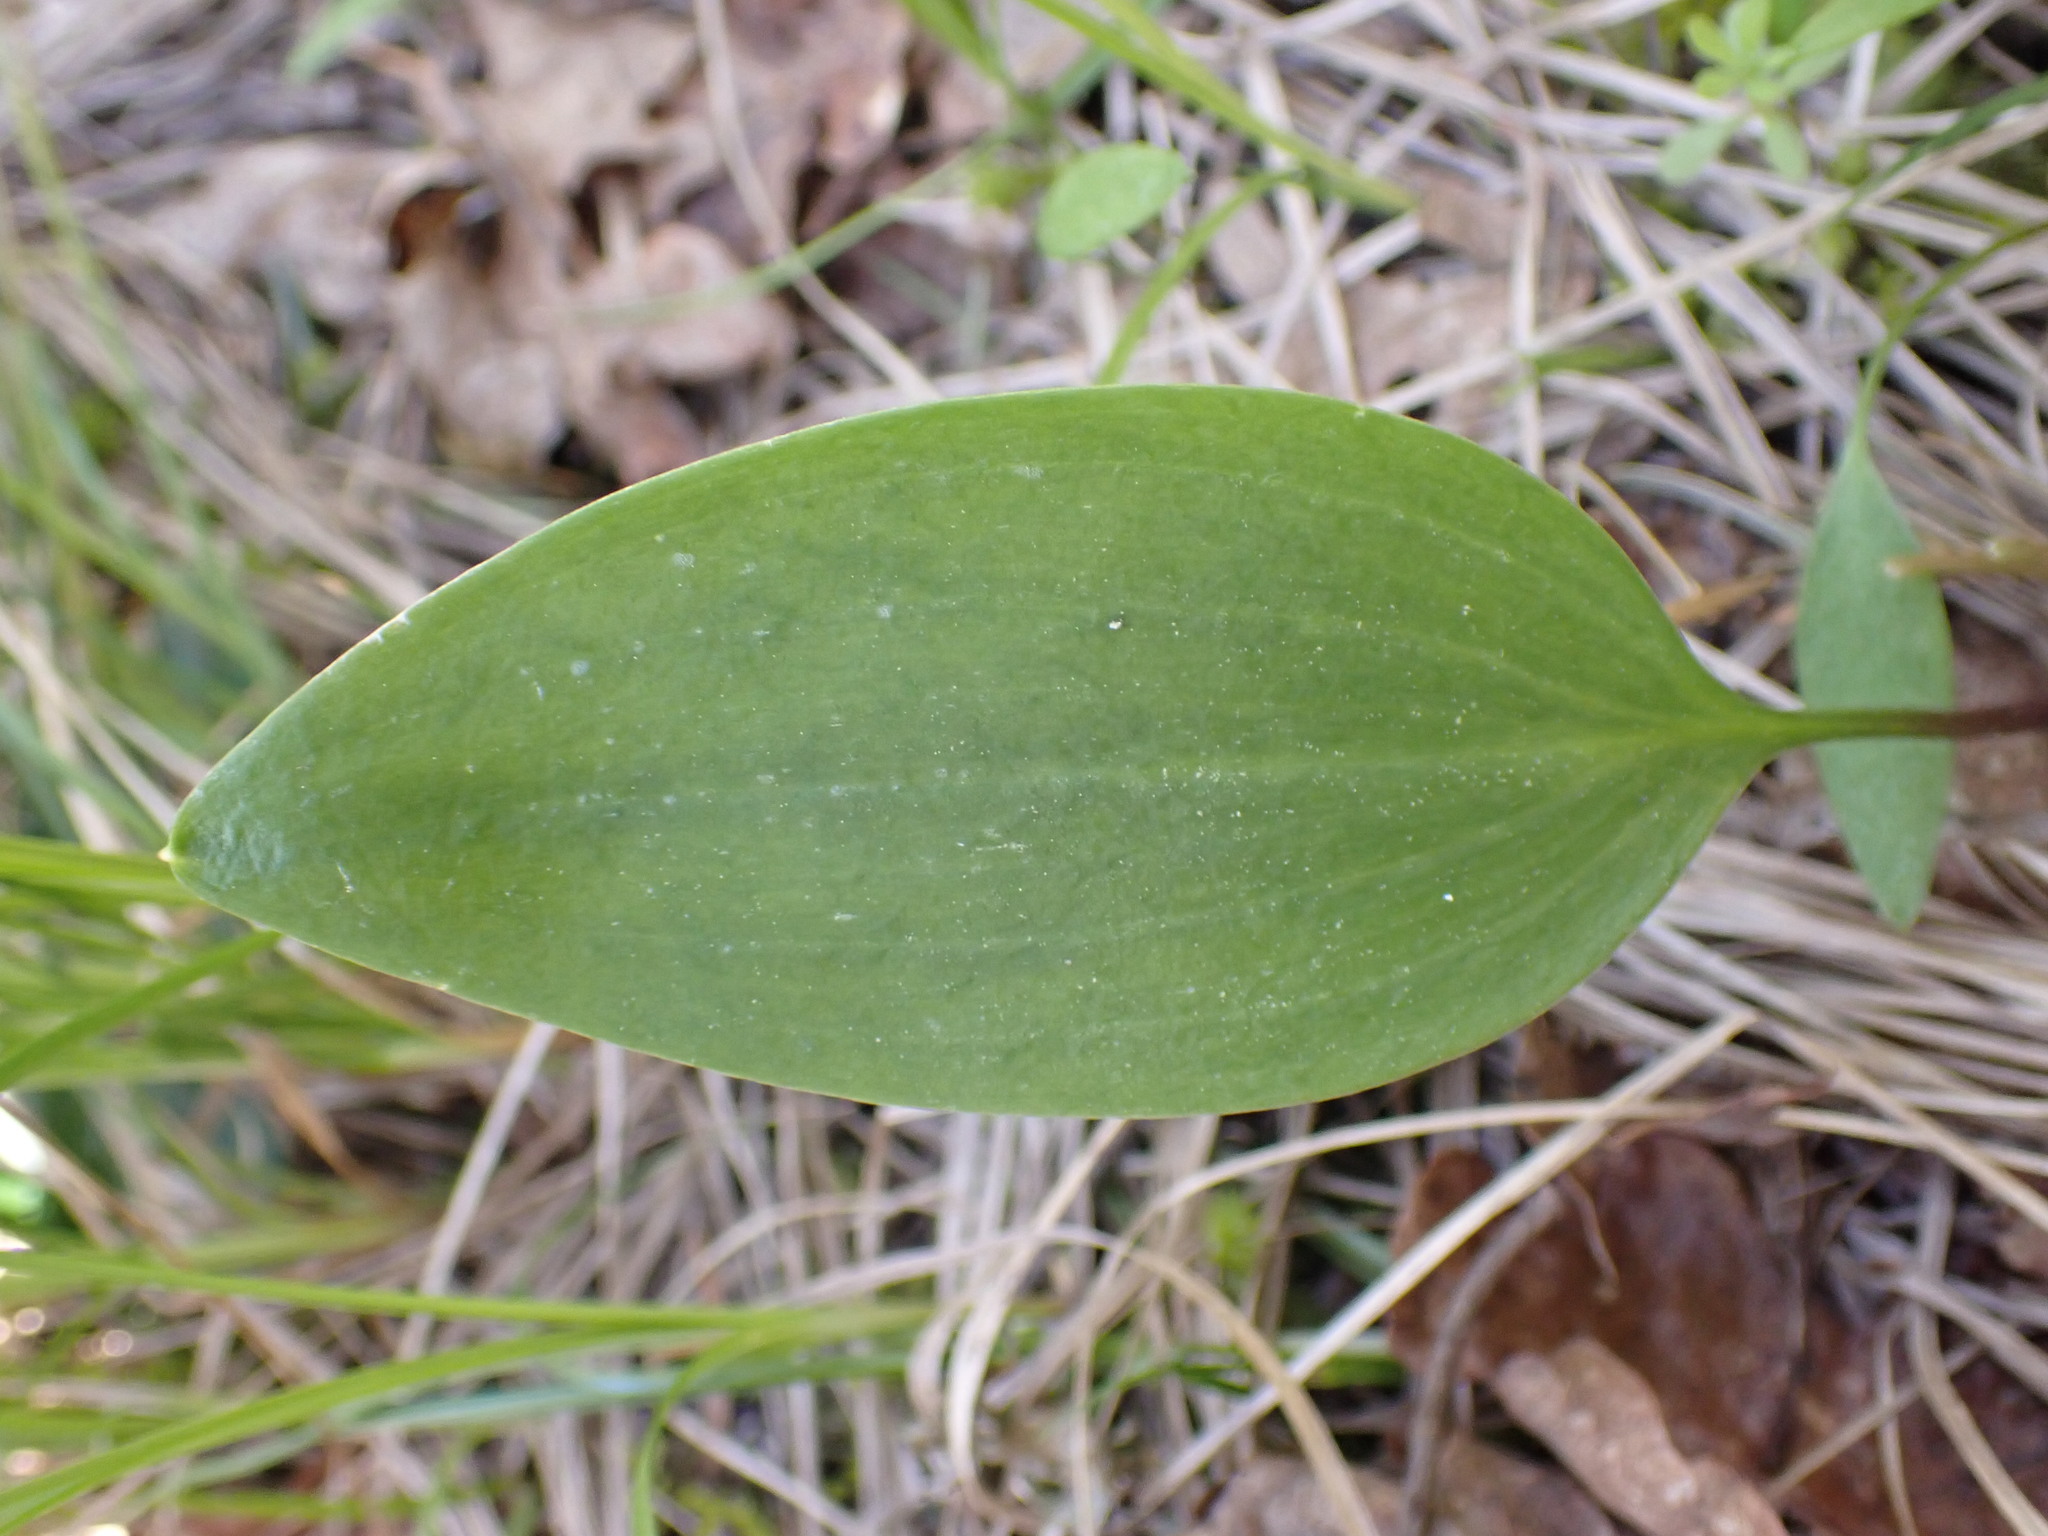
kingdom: Plantae
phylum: Tracheophyta
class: Liliopsida
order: Liliales
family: Liliaceae
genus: Fritillaria
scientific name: Fritillaria affinis
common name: Ojai fritillary
